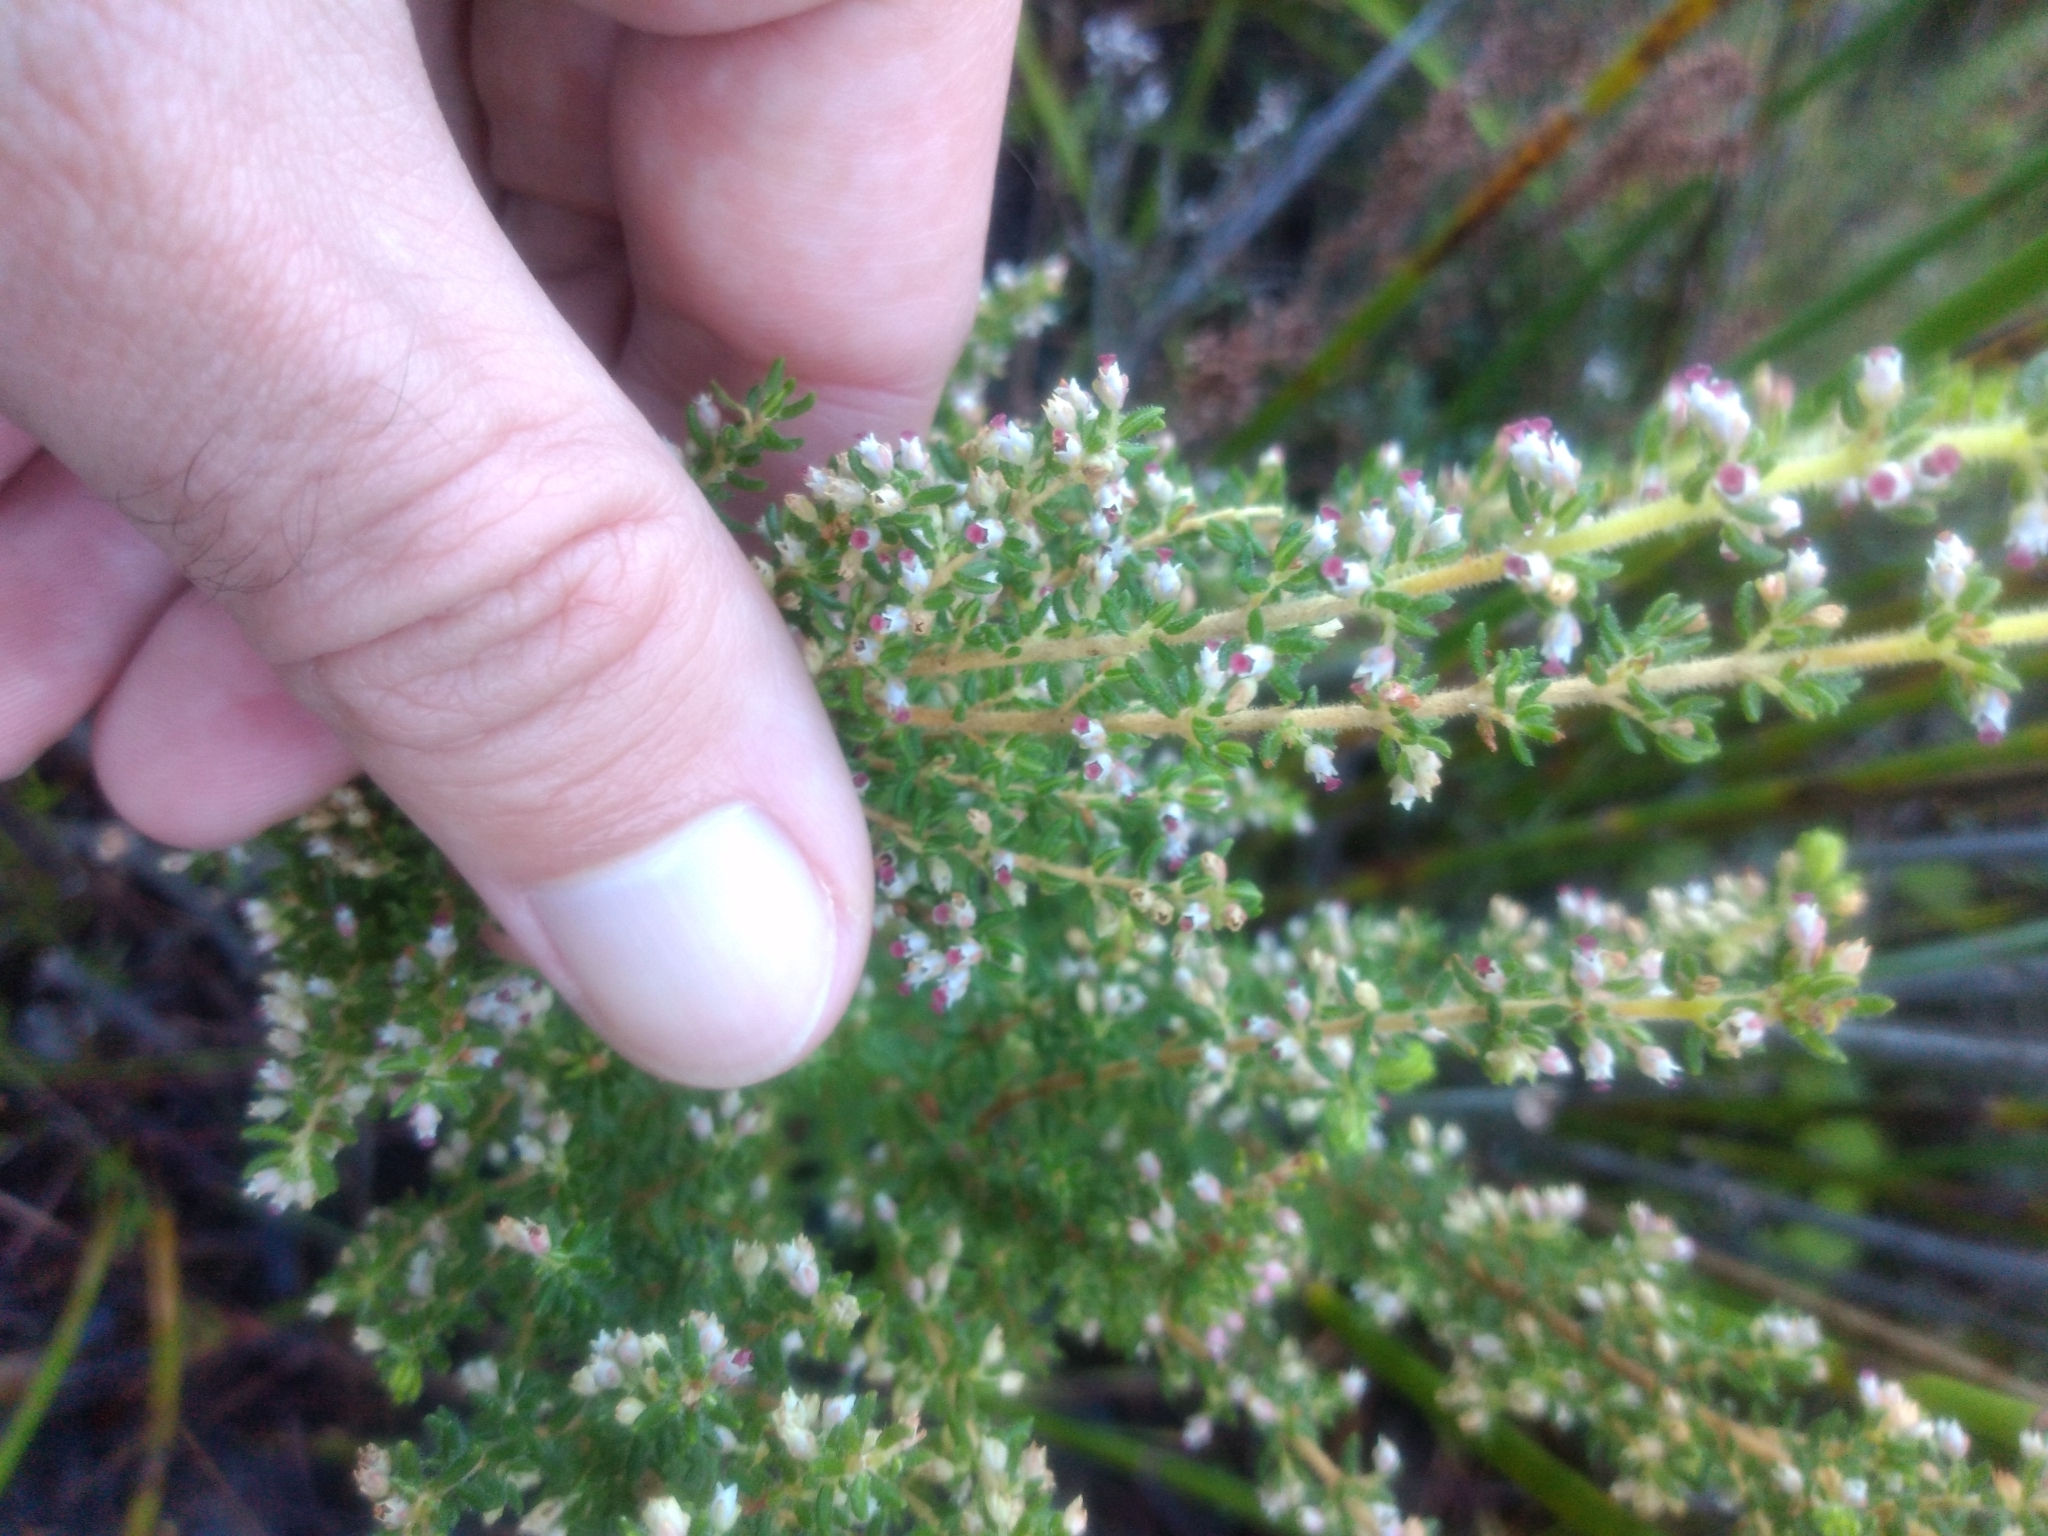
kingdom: Plantae
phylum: Tracheophyta
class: Magnoliopsida
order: Ericales
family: Ericaceae
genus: Erica
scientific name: Erica hispidula
